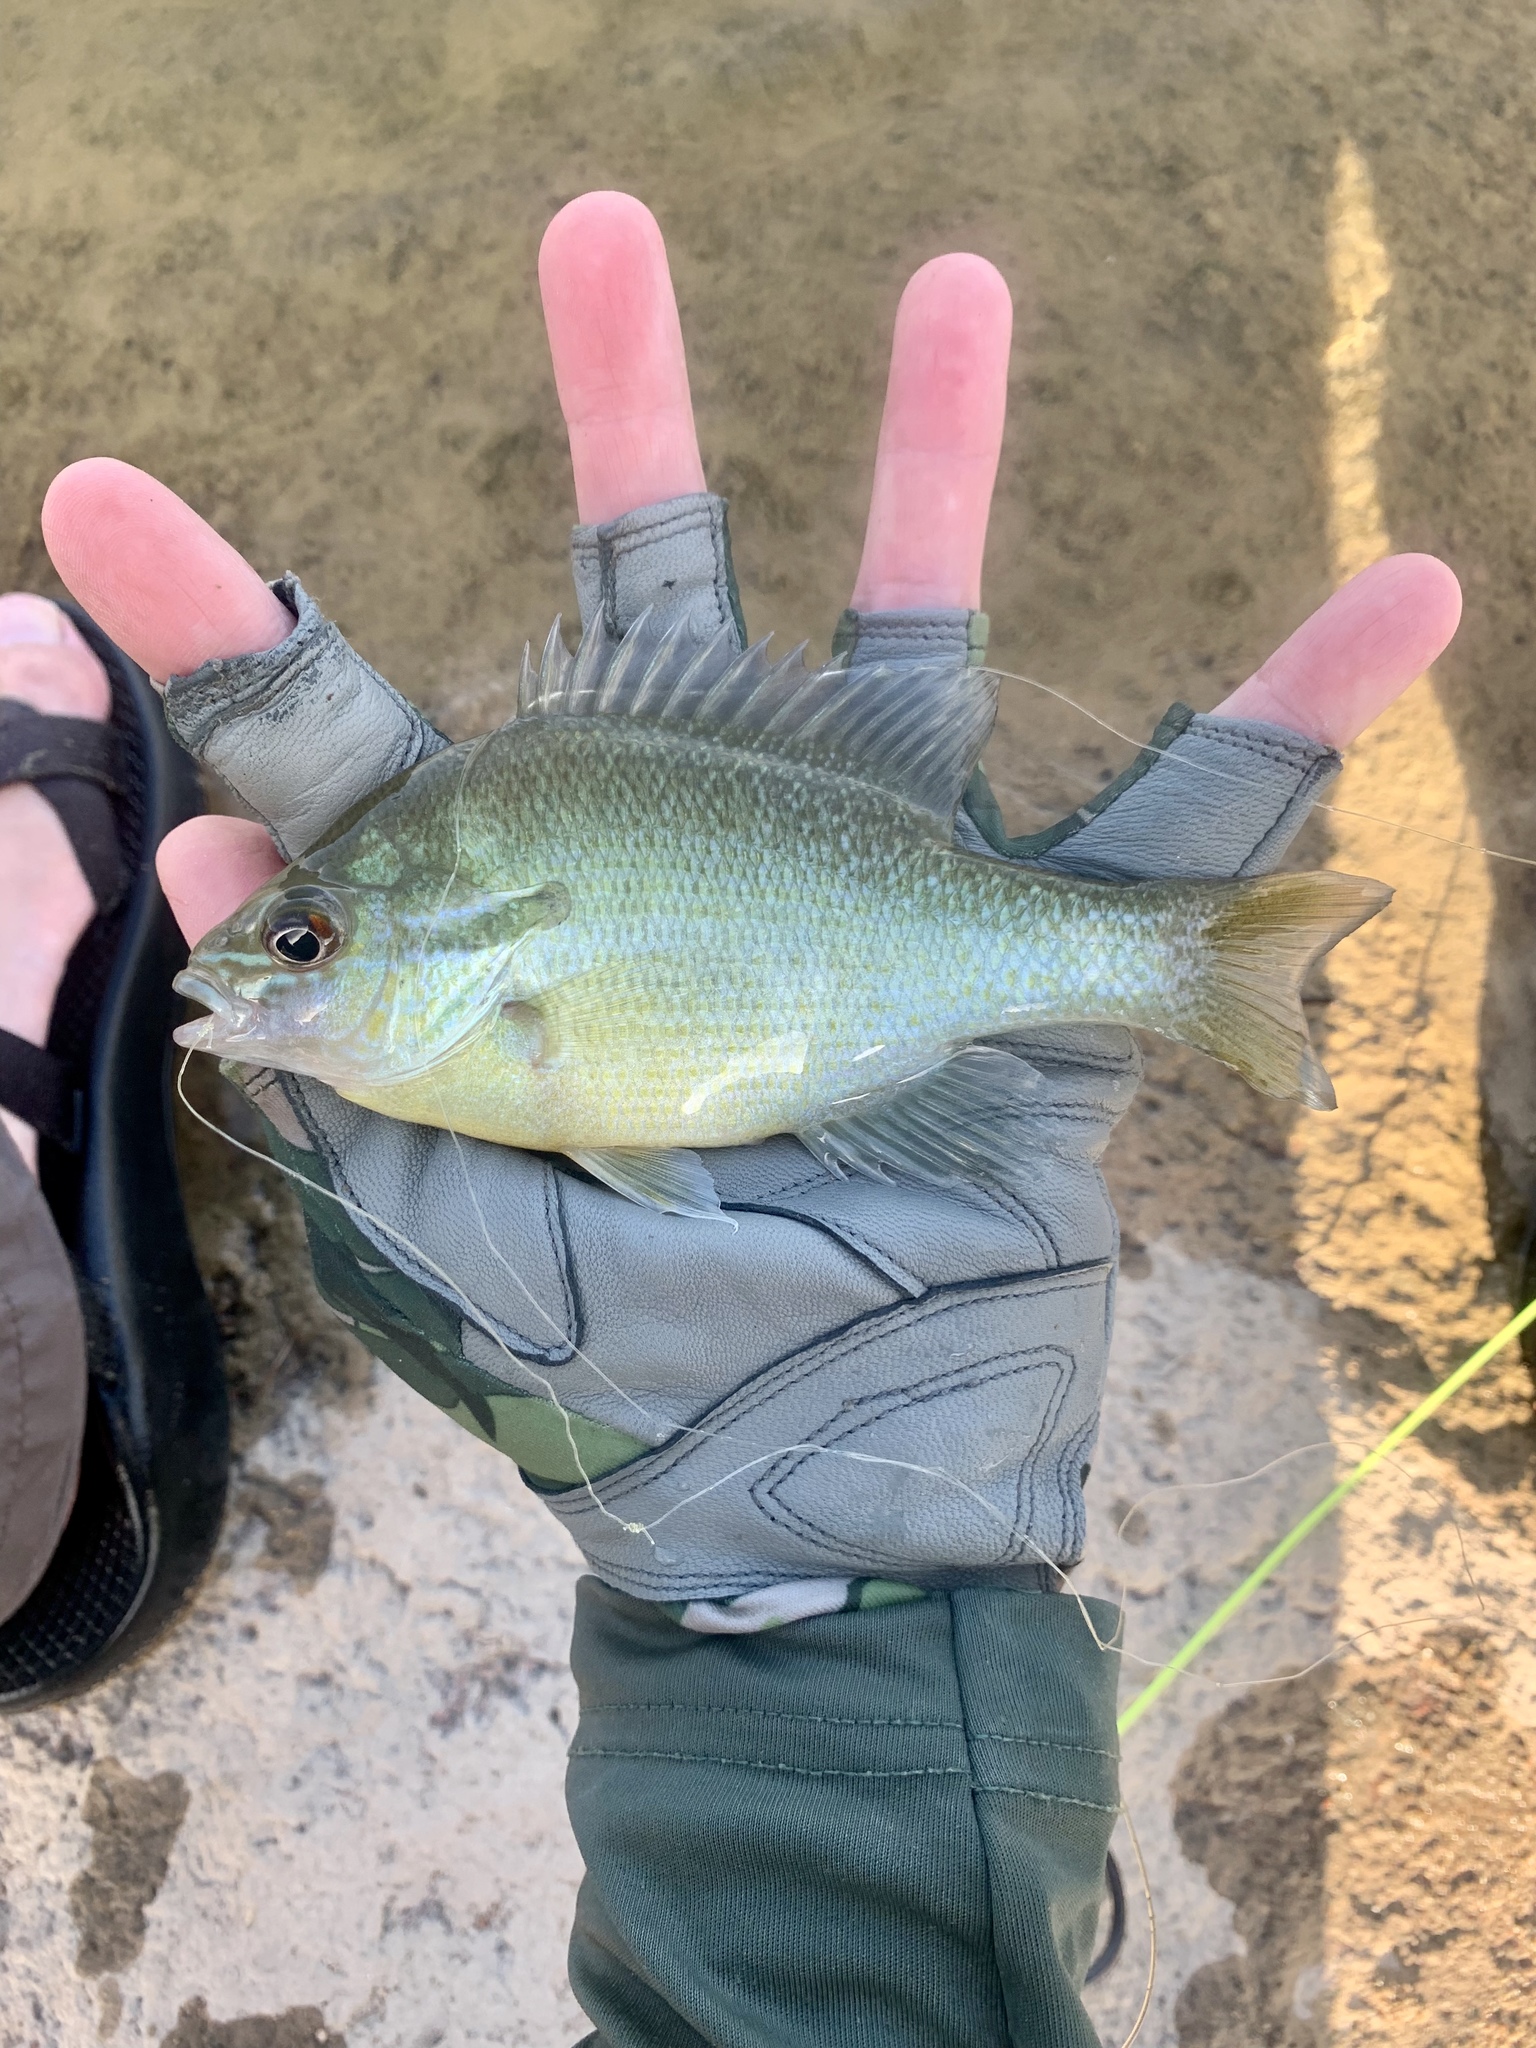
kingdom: Animalia
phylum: Chordata
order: Perciformes
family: Centrarchidae
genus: Lepomis
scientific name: Lepomis auritus
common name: Redbreast sunfish
